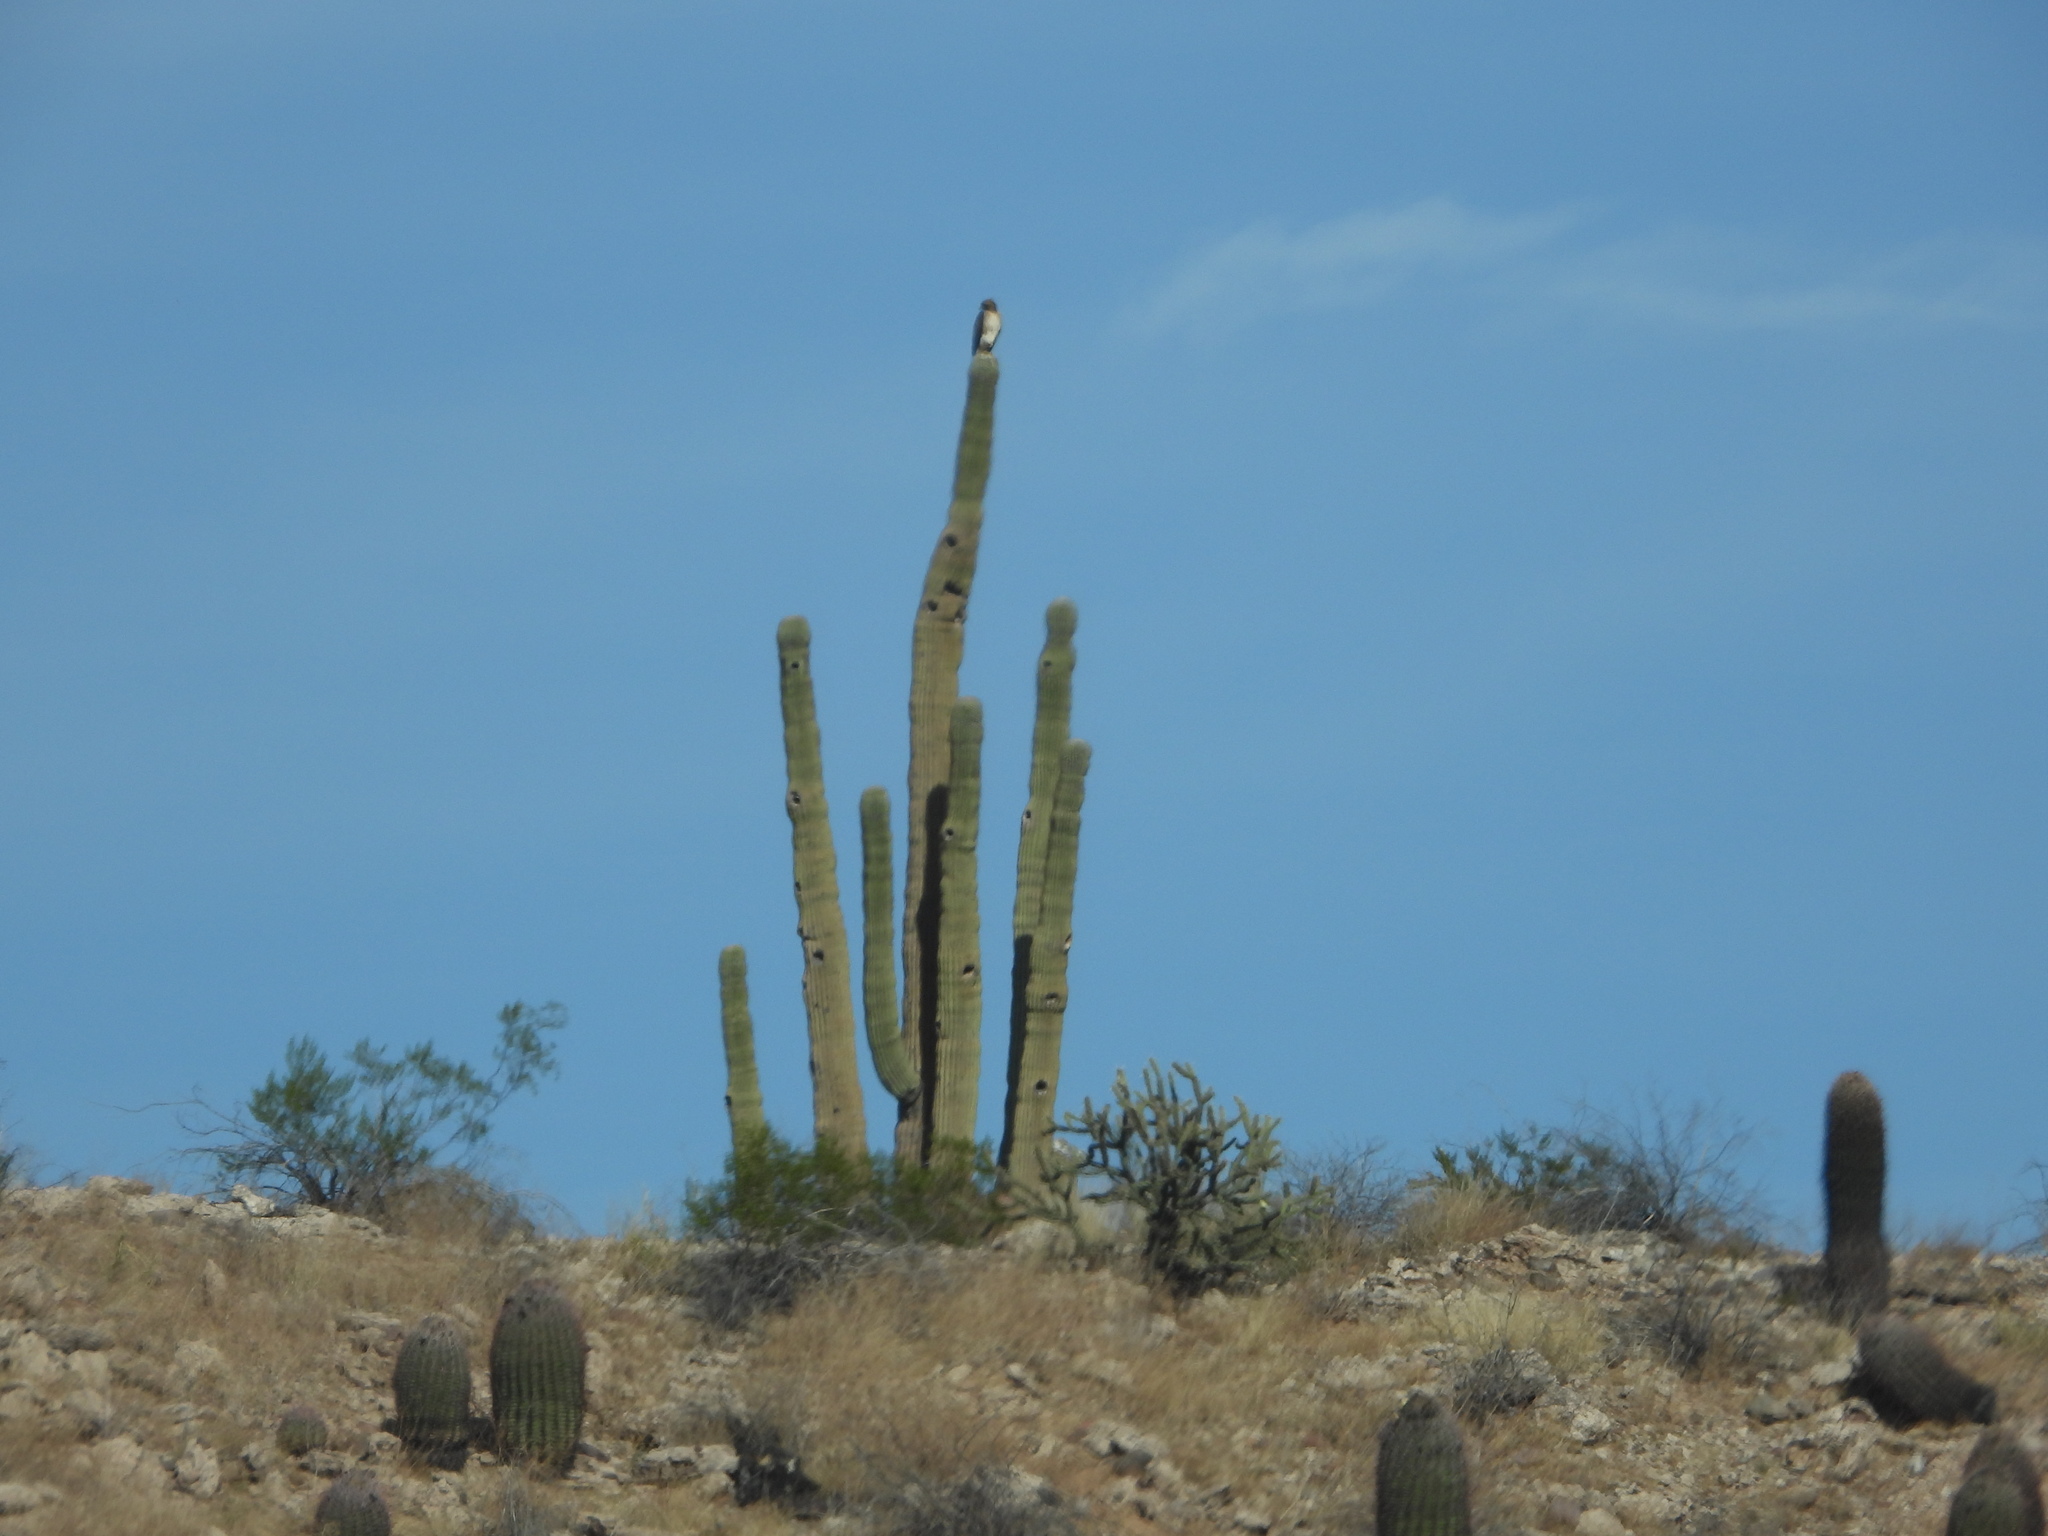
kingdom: Plantae
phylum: Tracheophyta
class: Magnoliopsida
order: Caryophyllales
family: Cactaceae
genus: Carnegiea
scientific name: Carnegiea gigantea
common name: Saguaro
